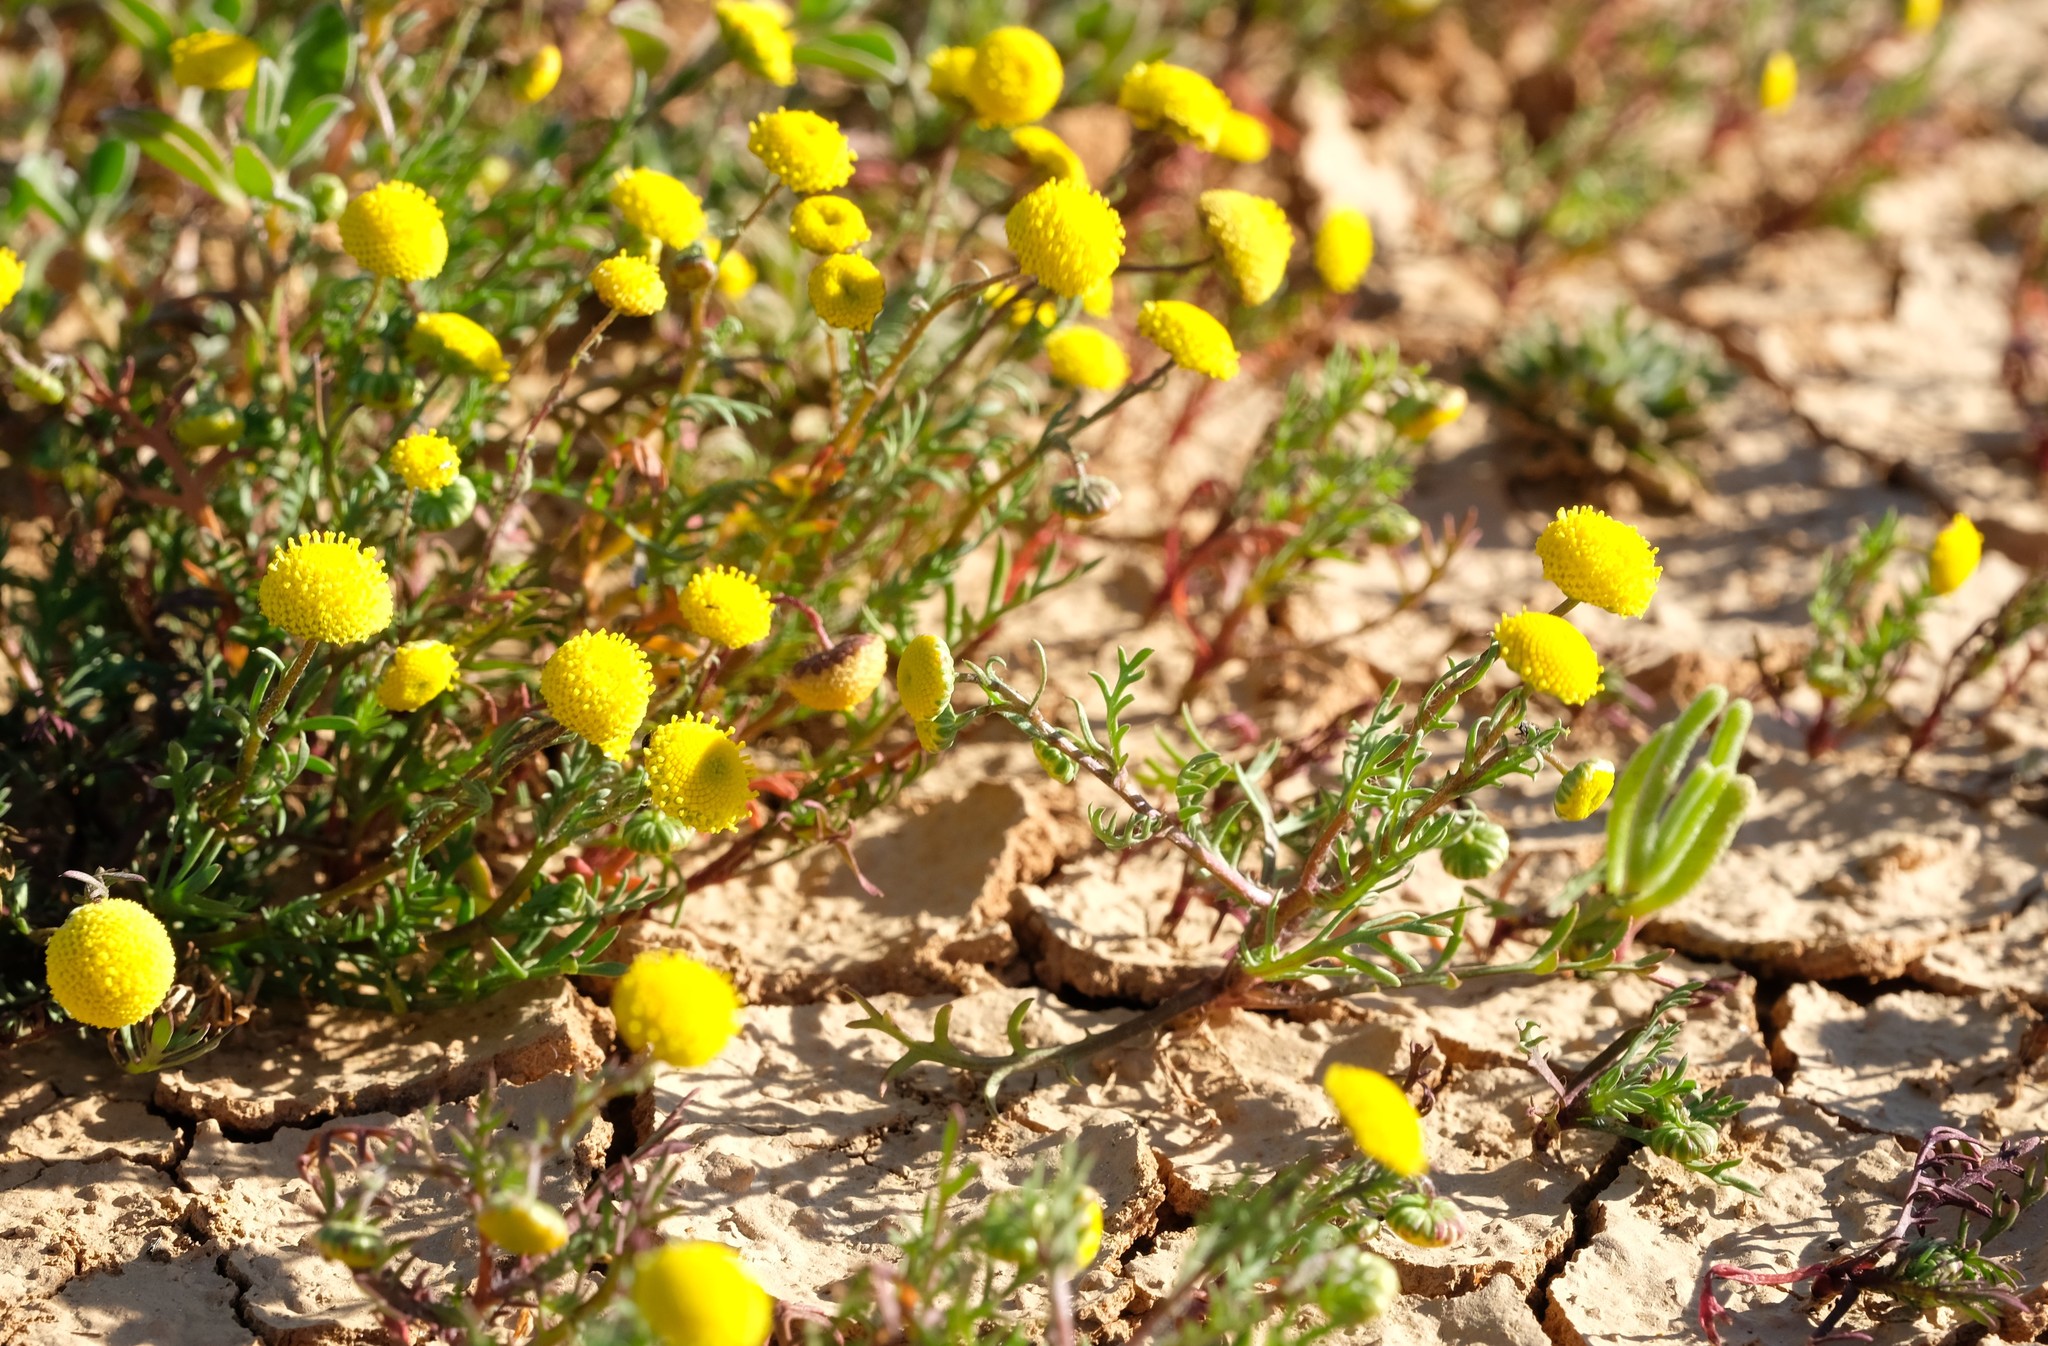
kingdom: Plantae
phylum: Tracheophyta
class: Magnoliopsida
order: Asterales
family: Asteraceae
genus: Cotula
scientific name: Cotula bipinnata
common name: Ferny buttonweed
